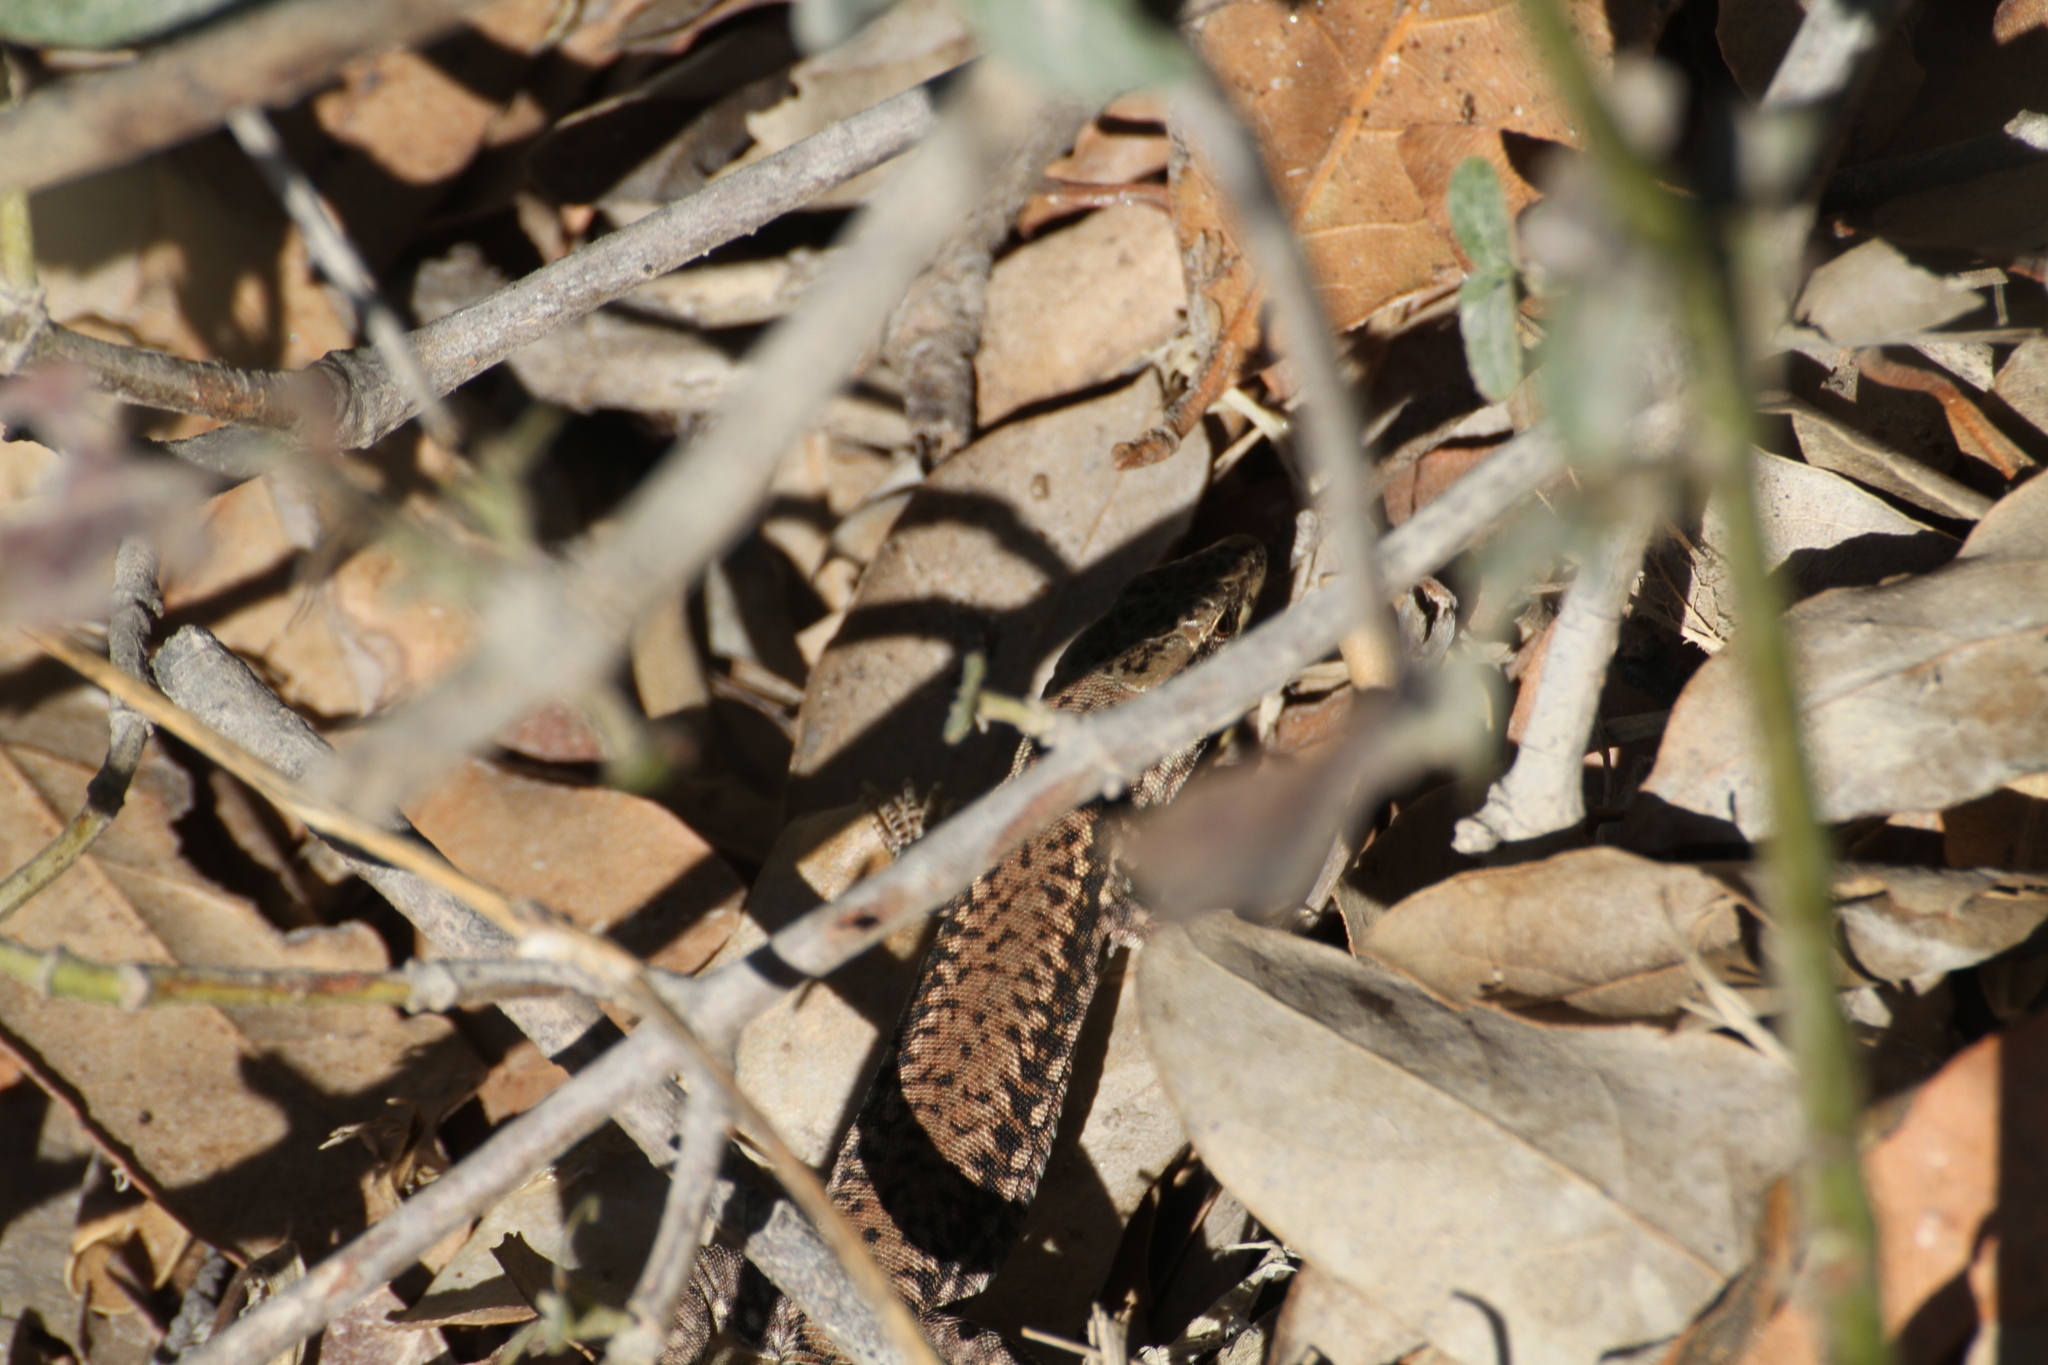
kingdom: Animalia
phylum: Chordata
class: Squamata
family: Lacertidae
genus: Podarcis
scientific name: Podarcis muralis
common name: Common wall lizard
